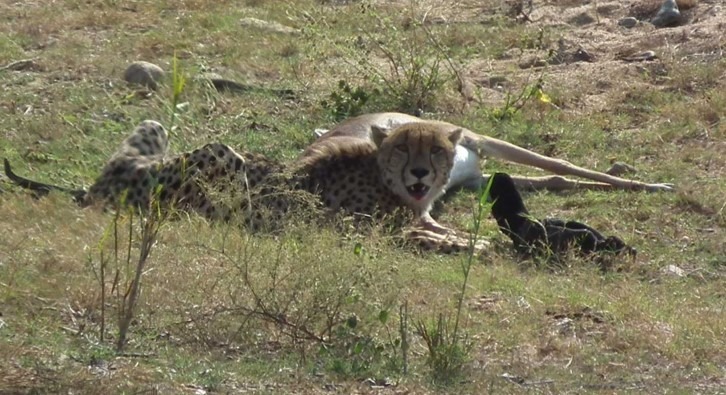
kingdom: Animalia
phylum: Chordata
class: Mammalia
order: Carnivora
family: Felidae
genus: Acinonyx
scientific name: Acinonyx jubatus
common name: Cheetah
